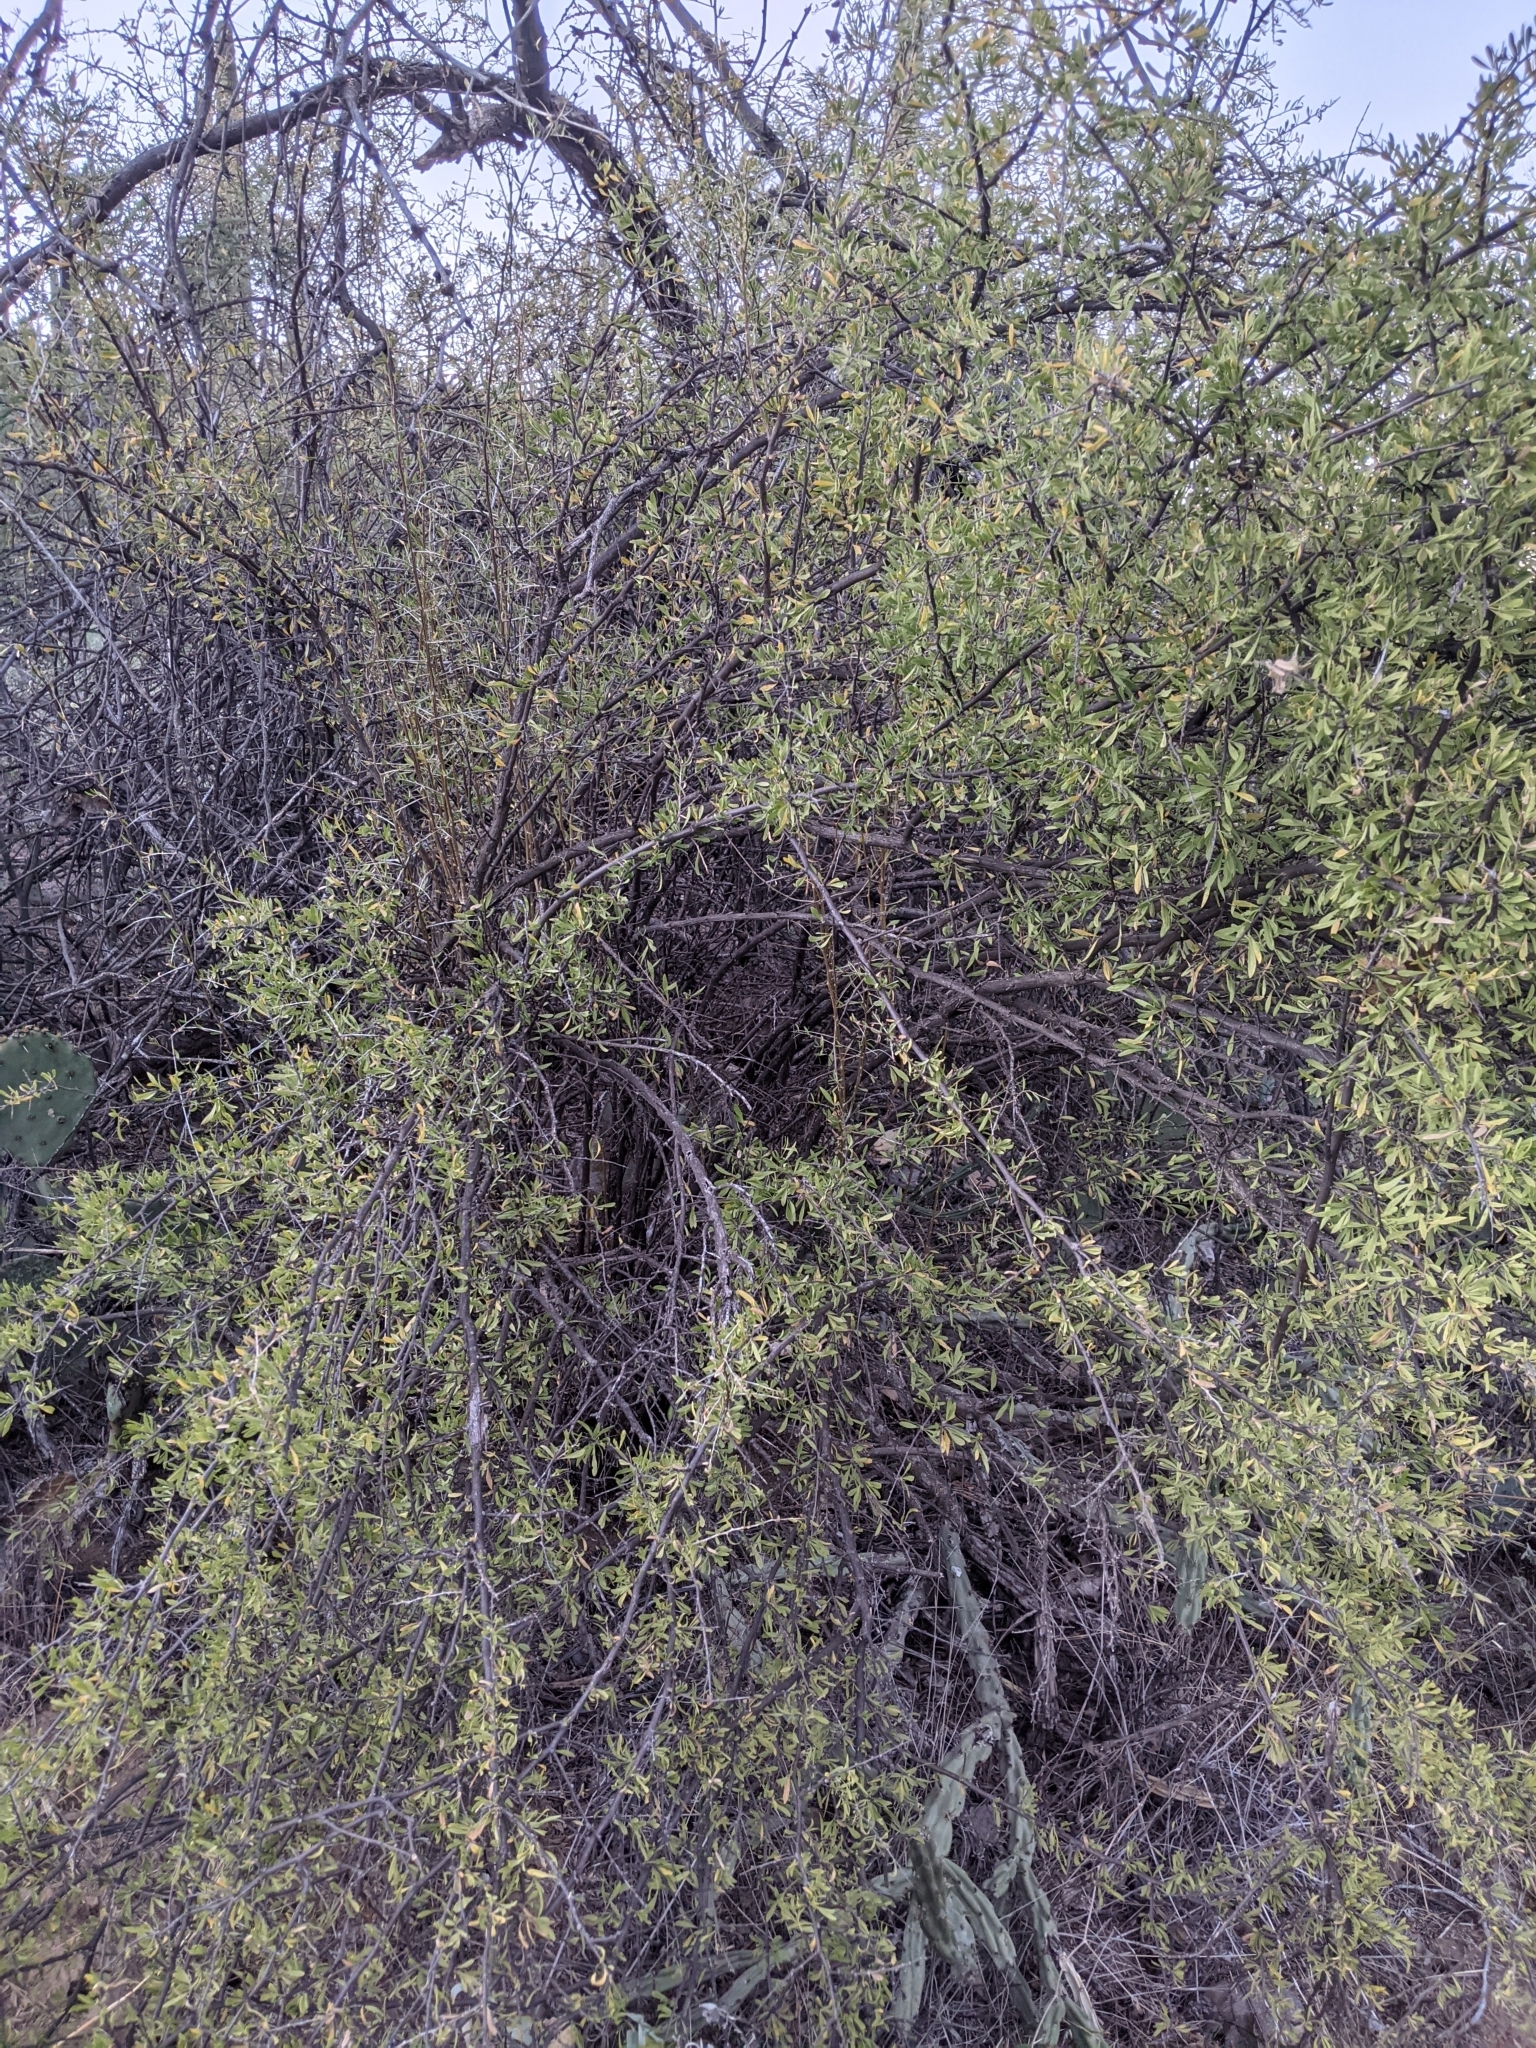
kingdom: Plantae
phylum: Tracheophyta
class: Magnoliopsida
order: Solanales
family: Solanaceae
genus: Lycium
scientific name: Lycium berlandieri
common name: Berlandier wolfberry
